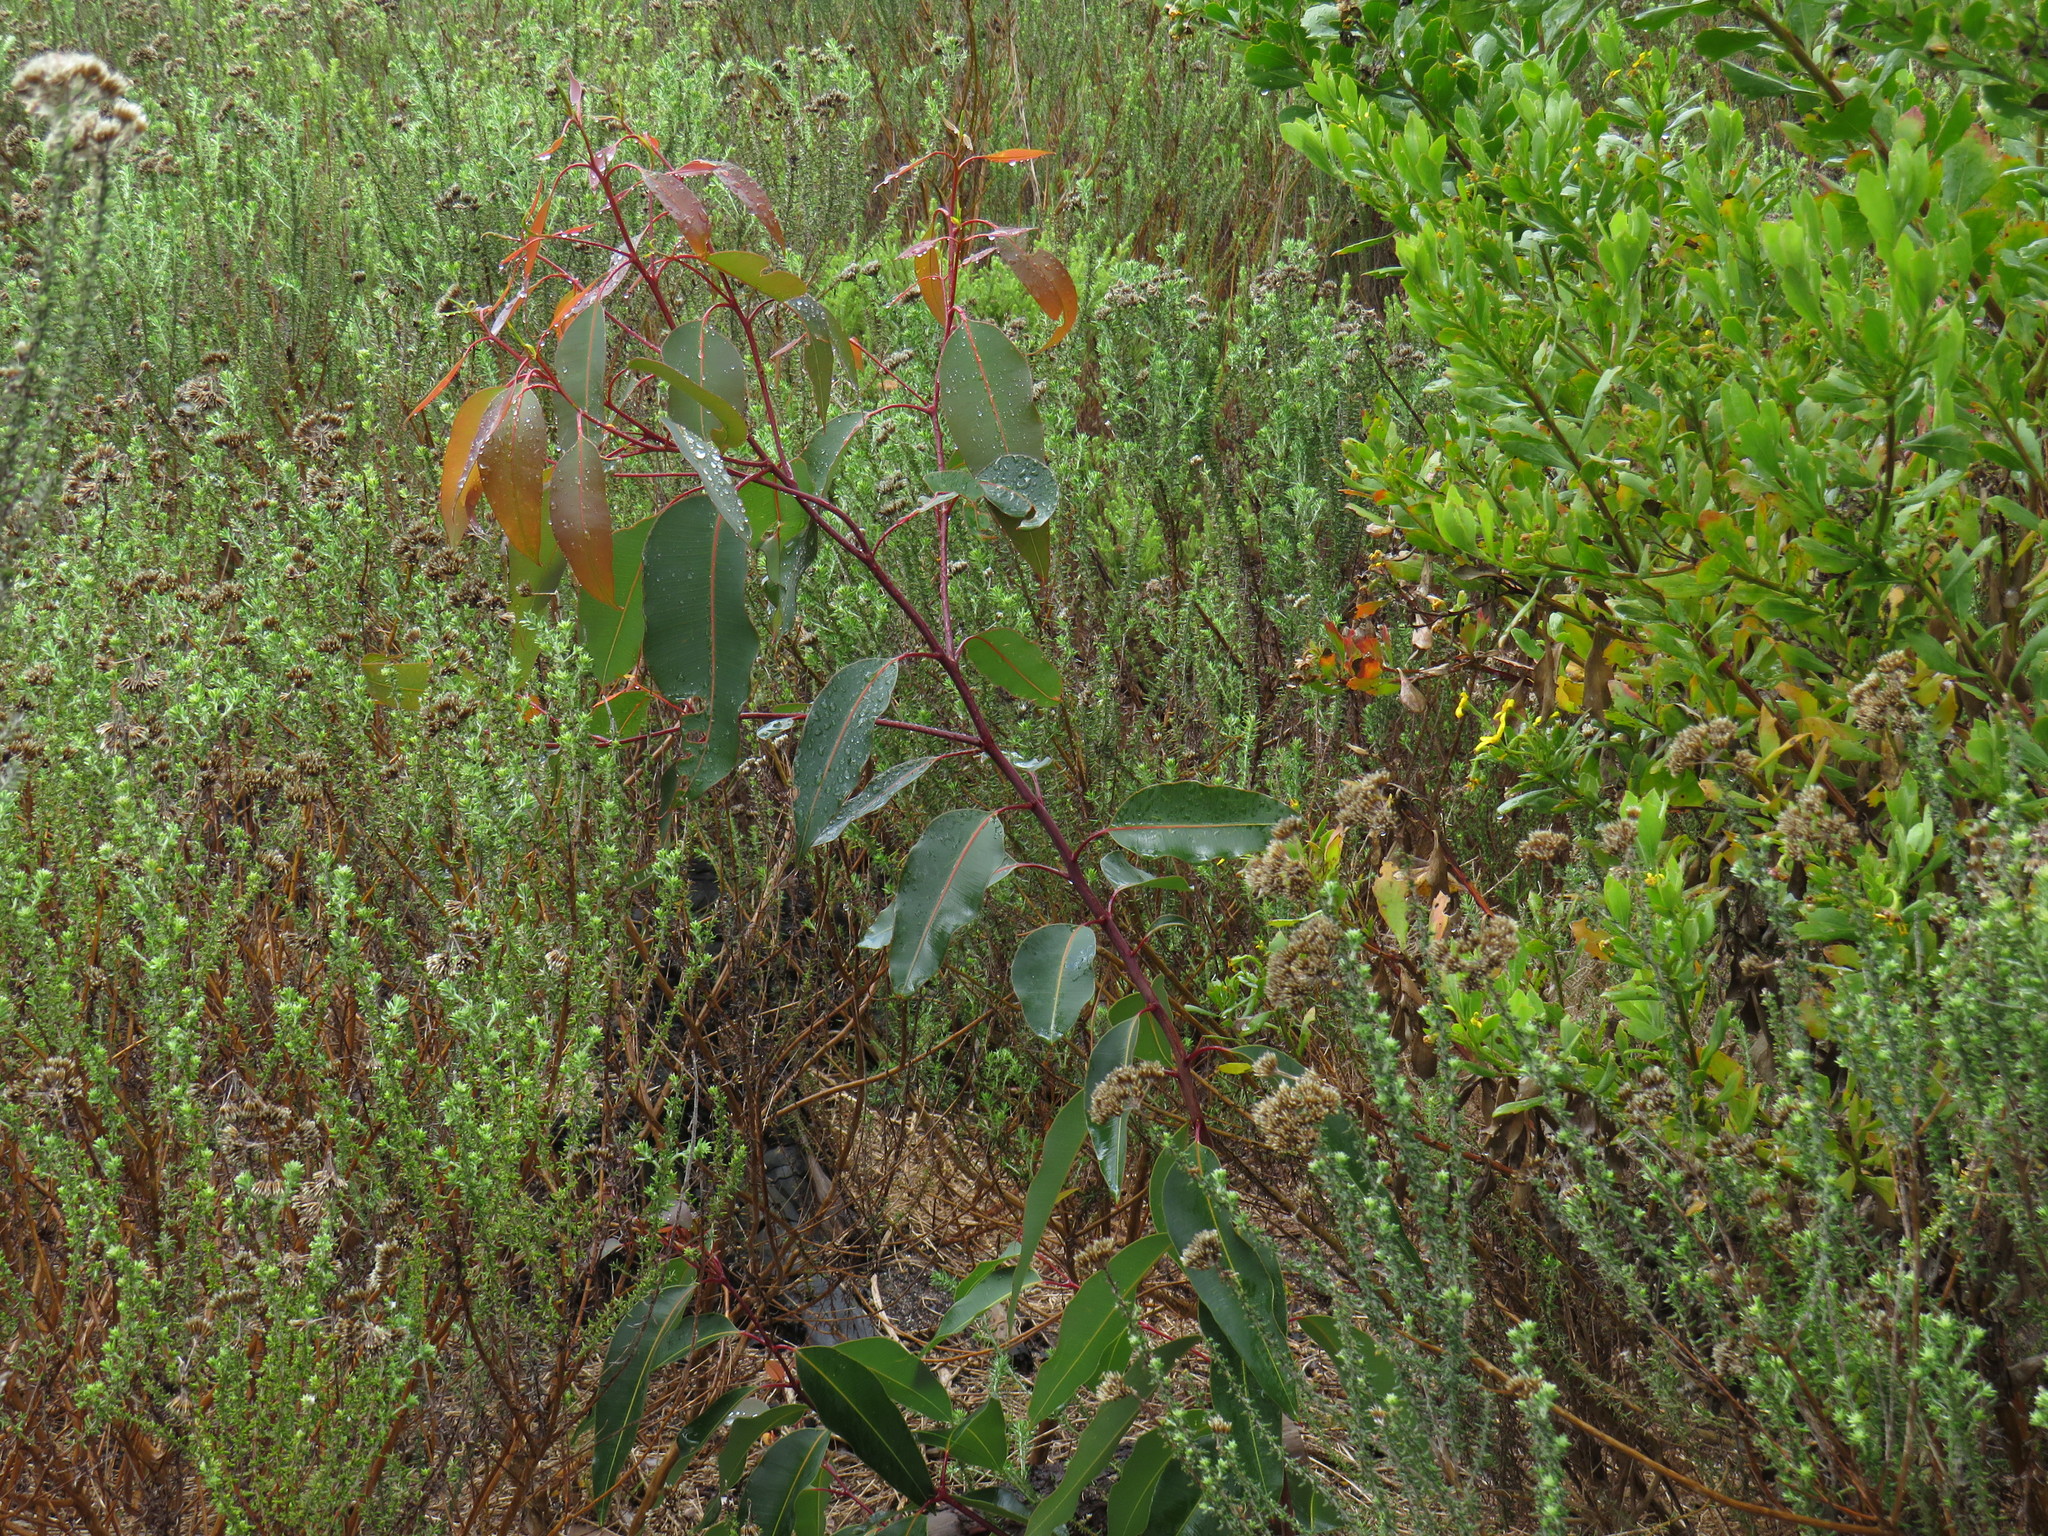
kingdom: Plantae
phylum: Tracheophyta
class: Magnoliopsida
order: Myrtales
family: Myrtaceae
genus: Corymbia
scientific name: Corymbia ficifolia
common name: Redflower gum
